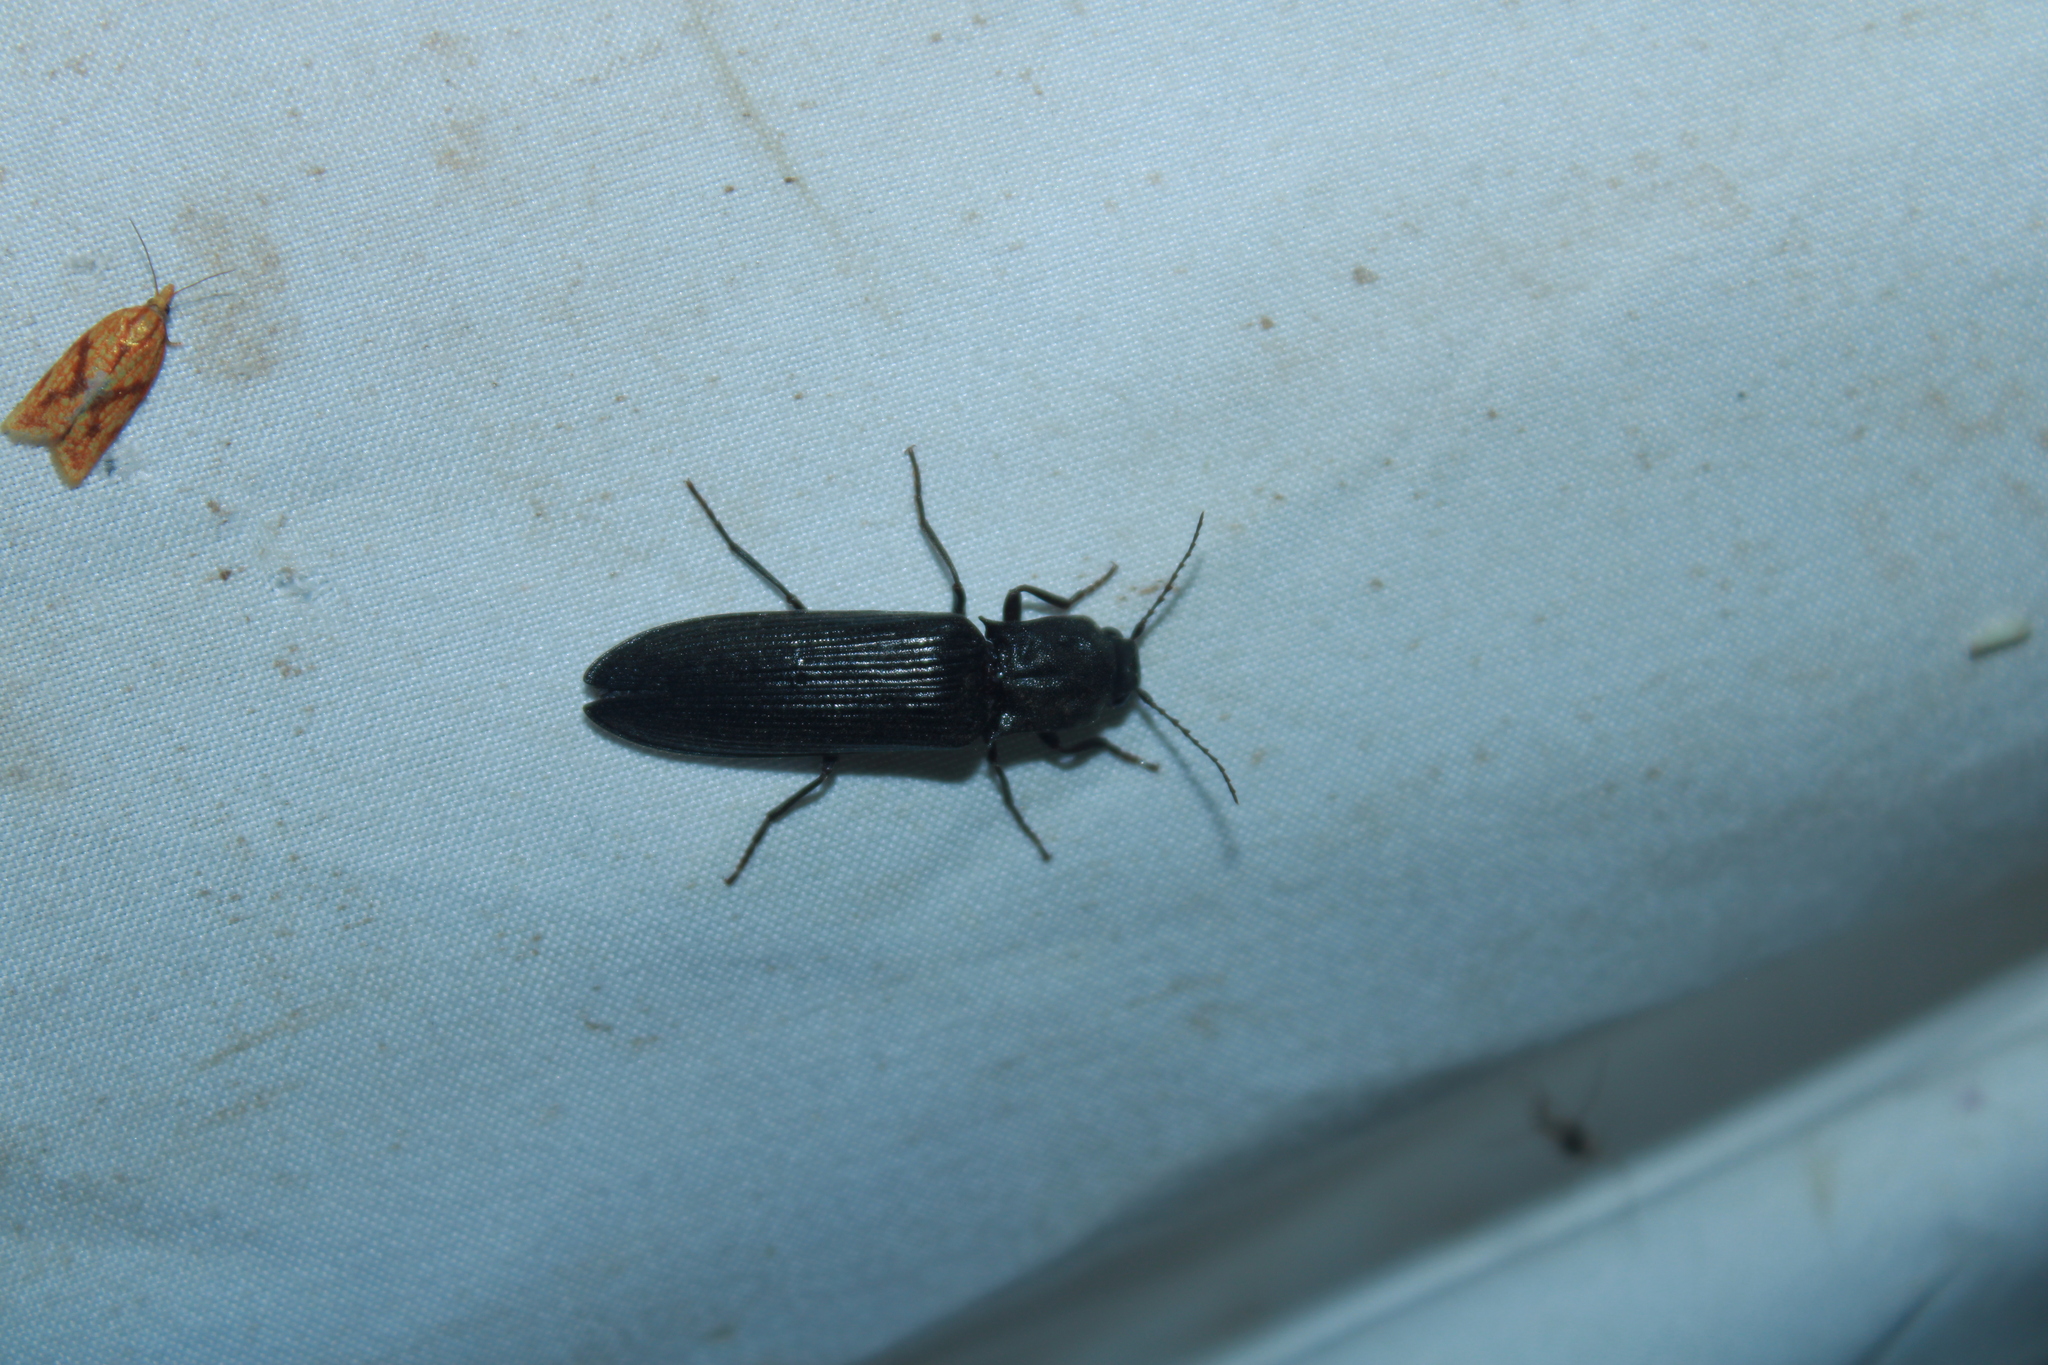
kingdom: Animalia
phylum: Arthropoda
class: Insecta
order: Coleoptera
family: Elateridae
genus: Pityobius
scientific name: Pityobius anguinus
